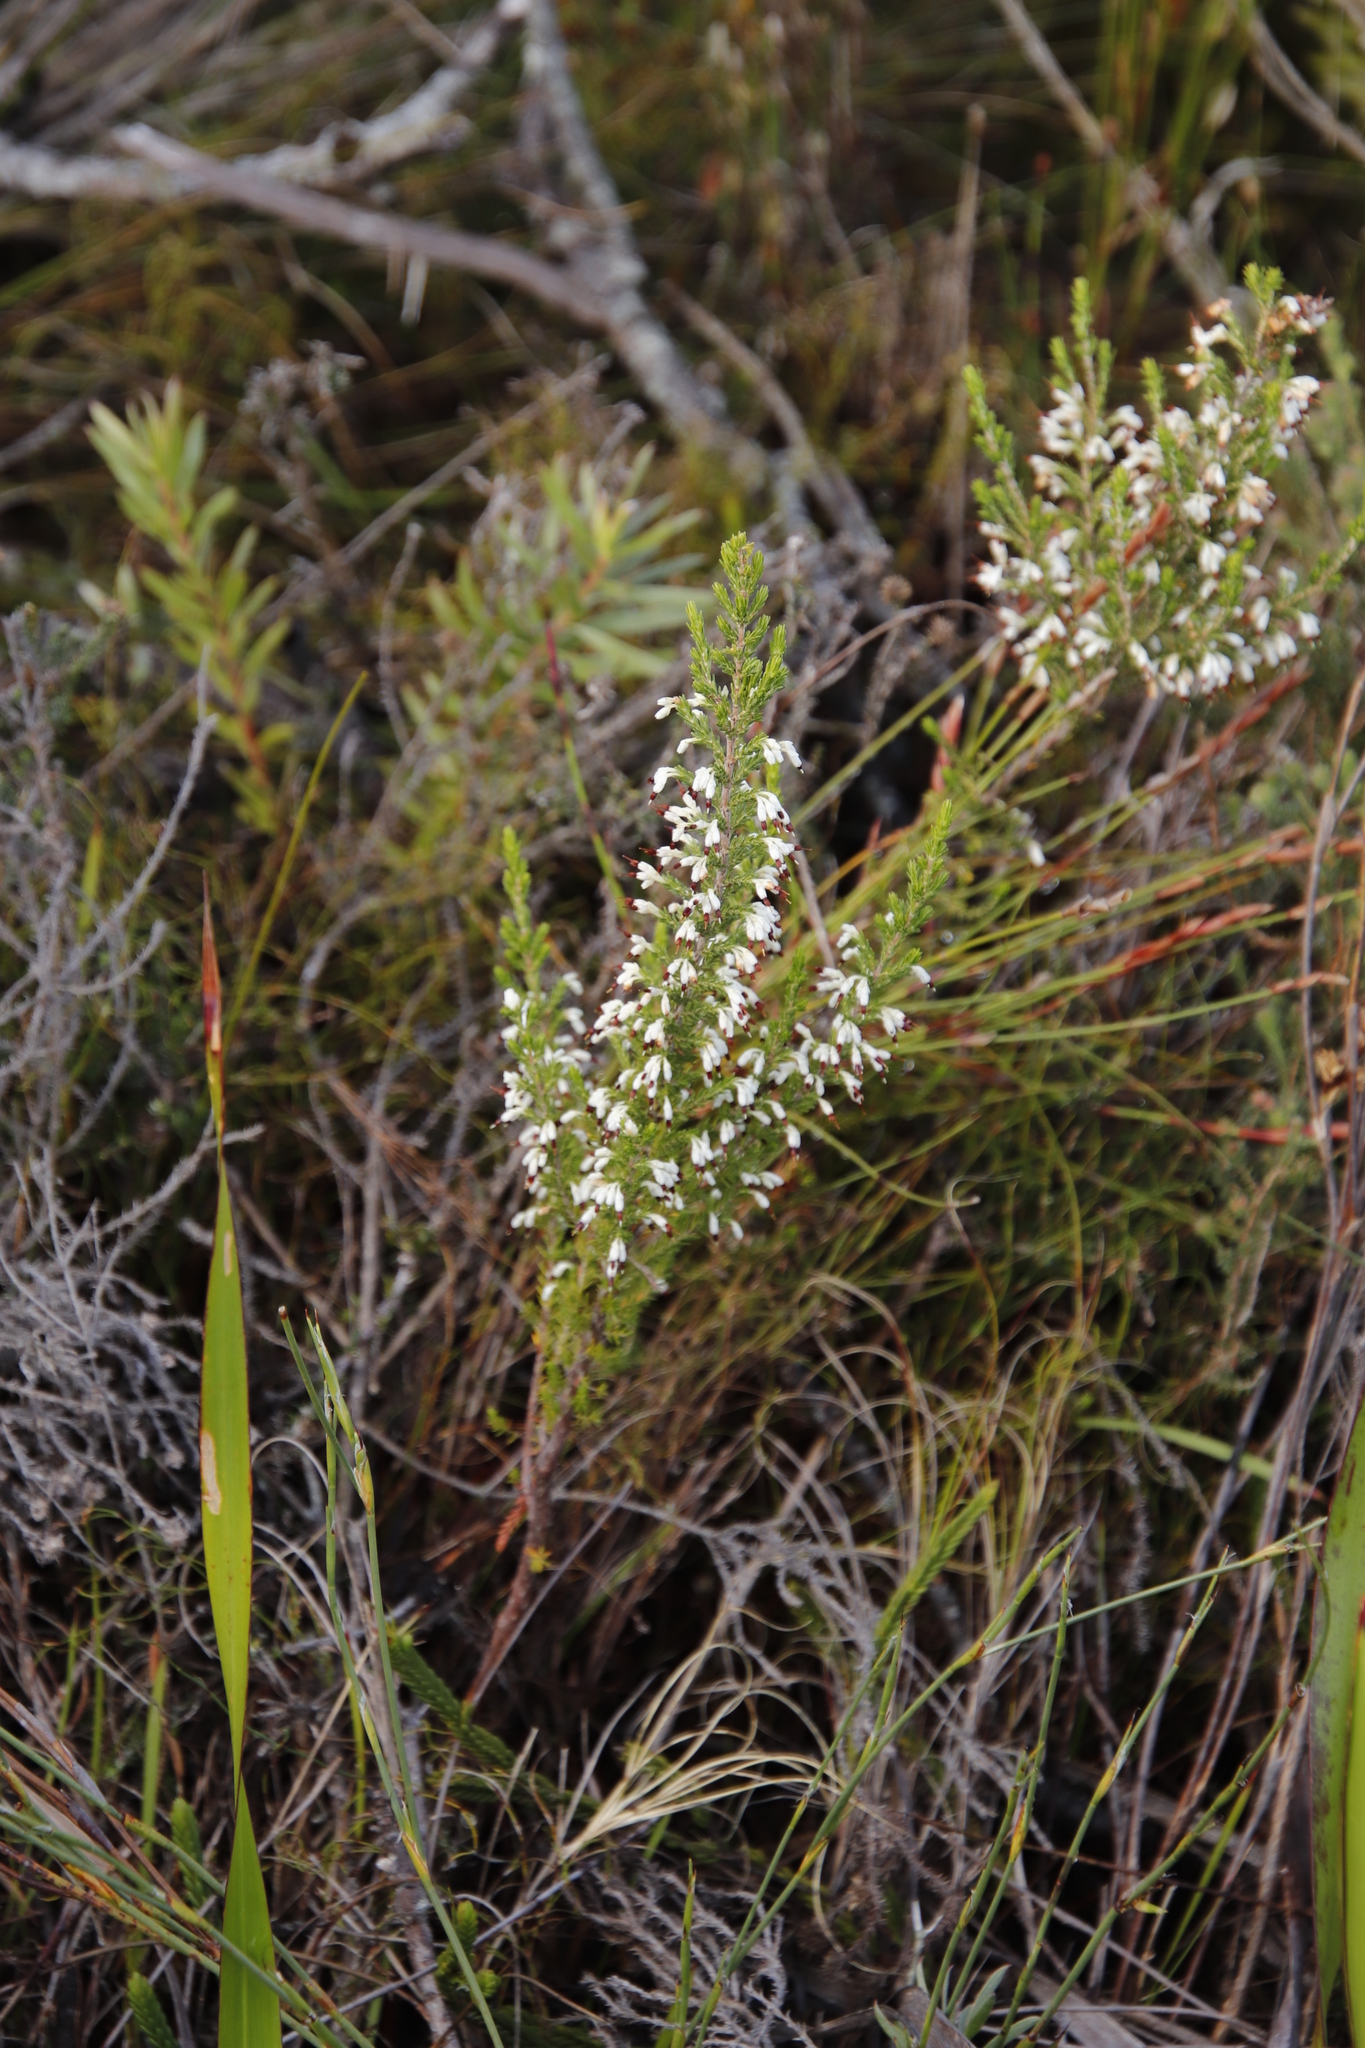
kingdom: Plantae
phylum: Tracheophyta
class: Magnoliopsida
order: Ericales
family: Ericaceae
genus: Erica
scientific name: Erica imbricata
